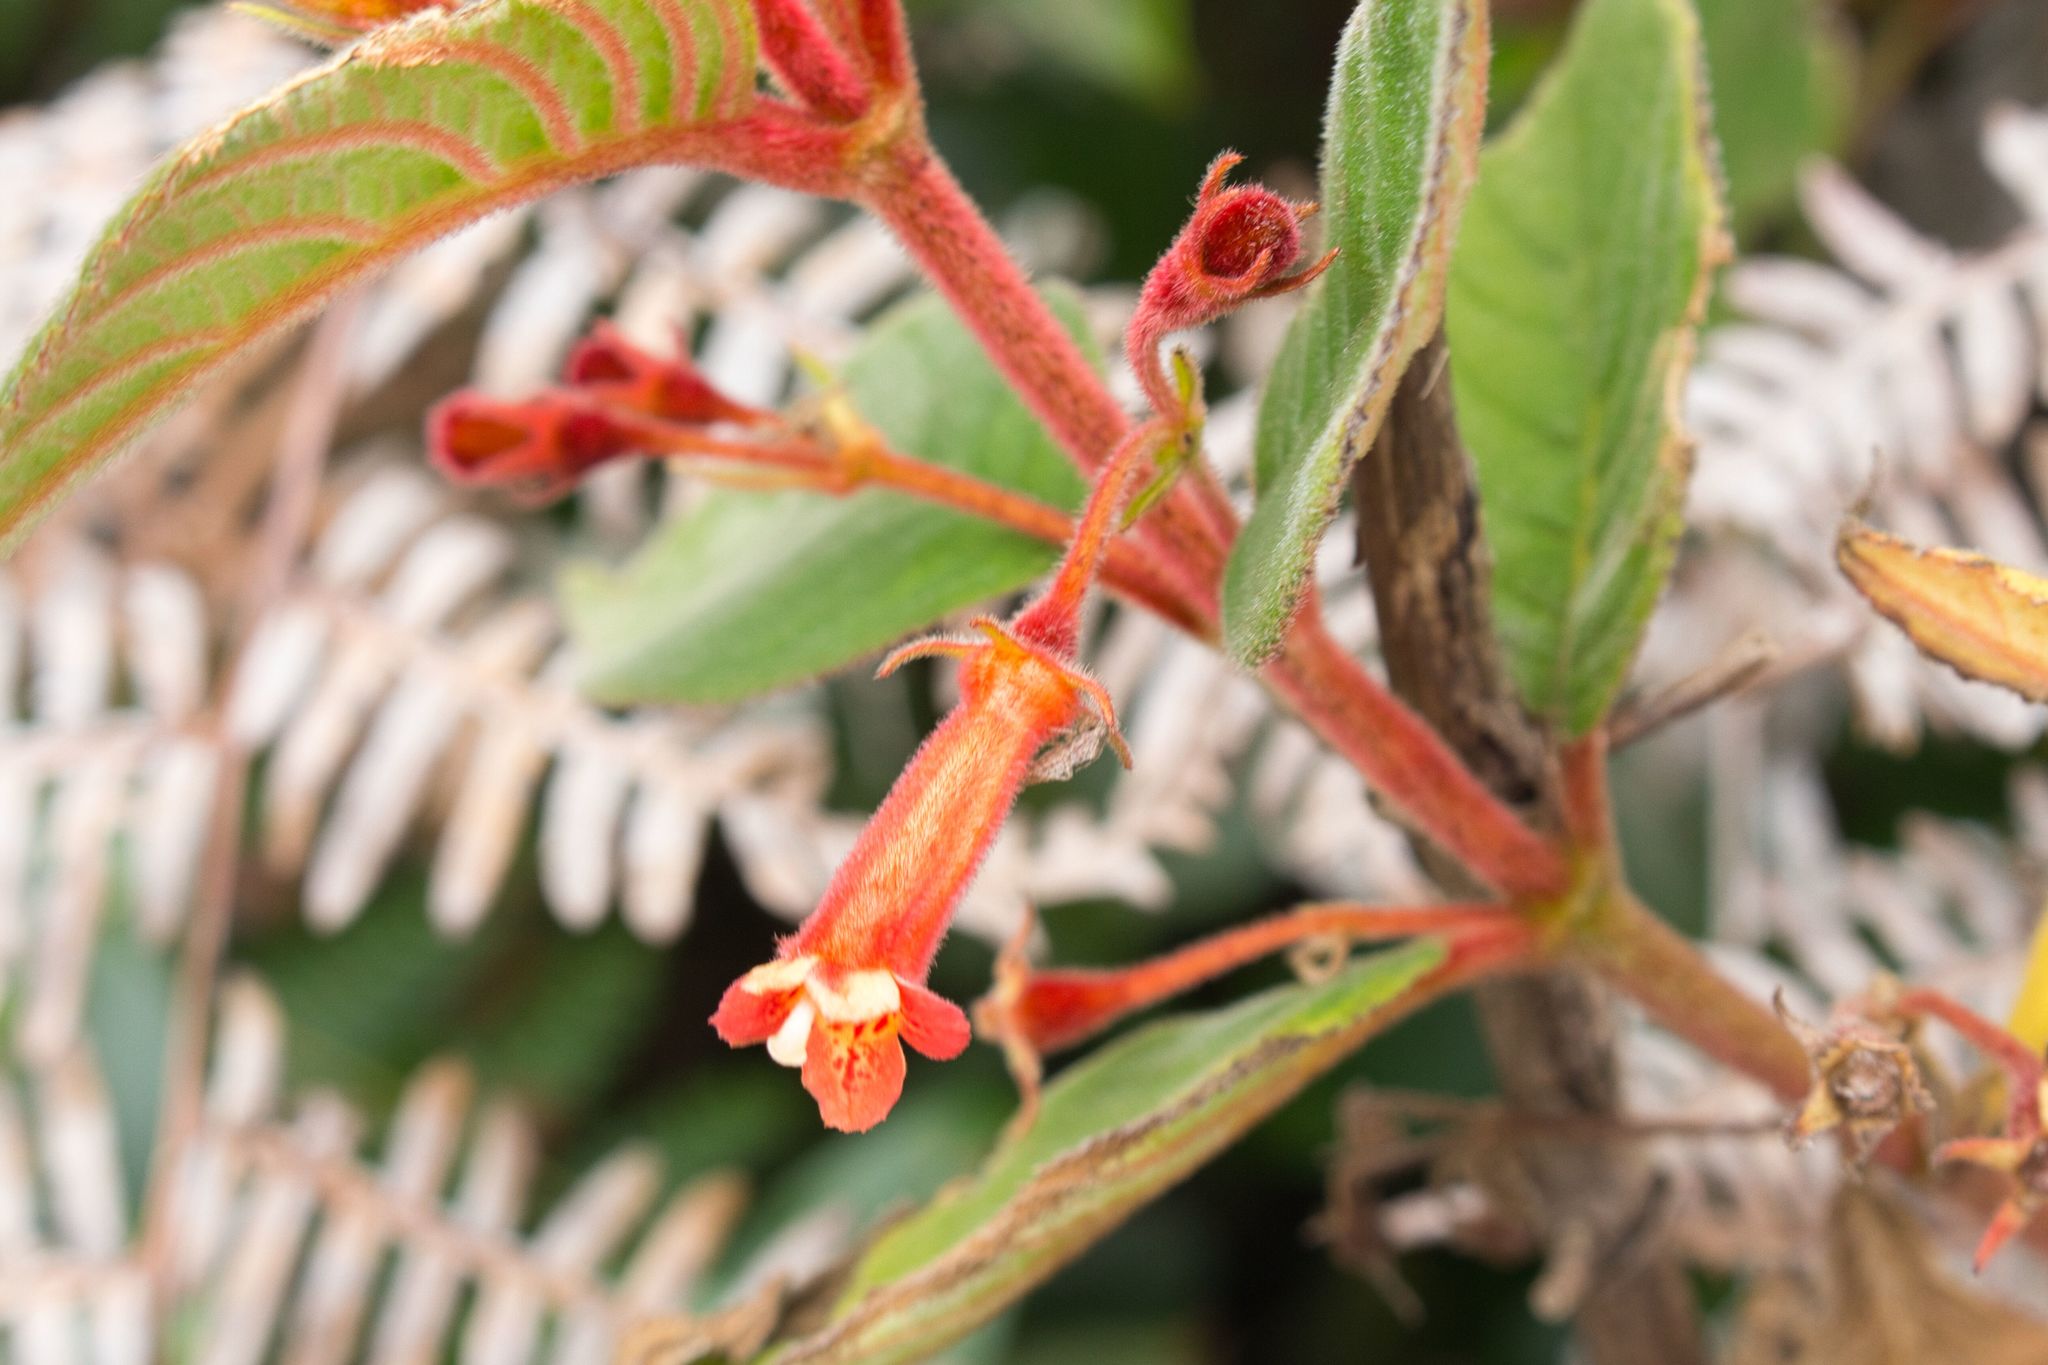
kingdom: Plantae
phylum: Tracheophyta
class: Magnoliopsida
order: Lamiales
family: Gesneriaceae
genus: Moussonia
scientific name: Moussonia strigosa
